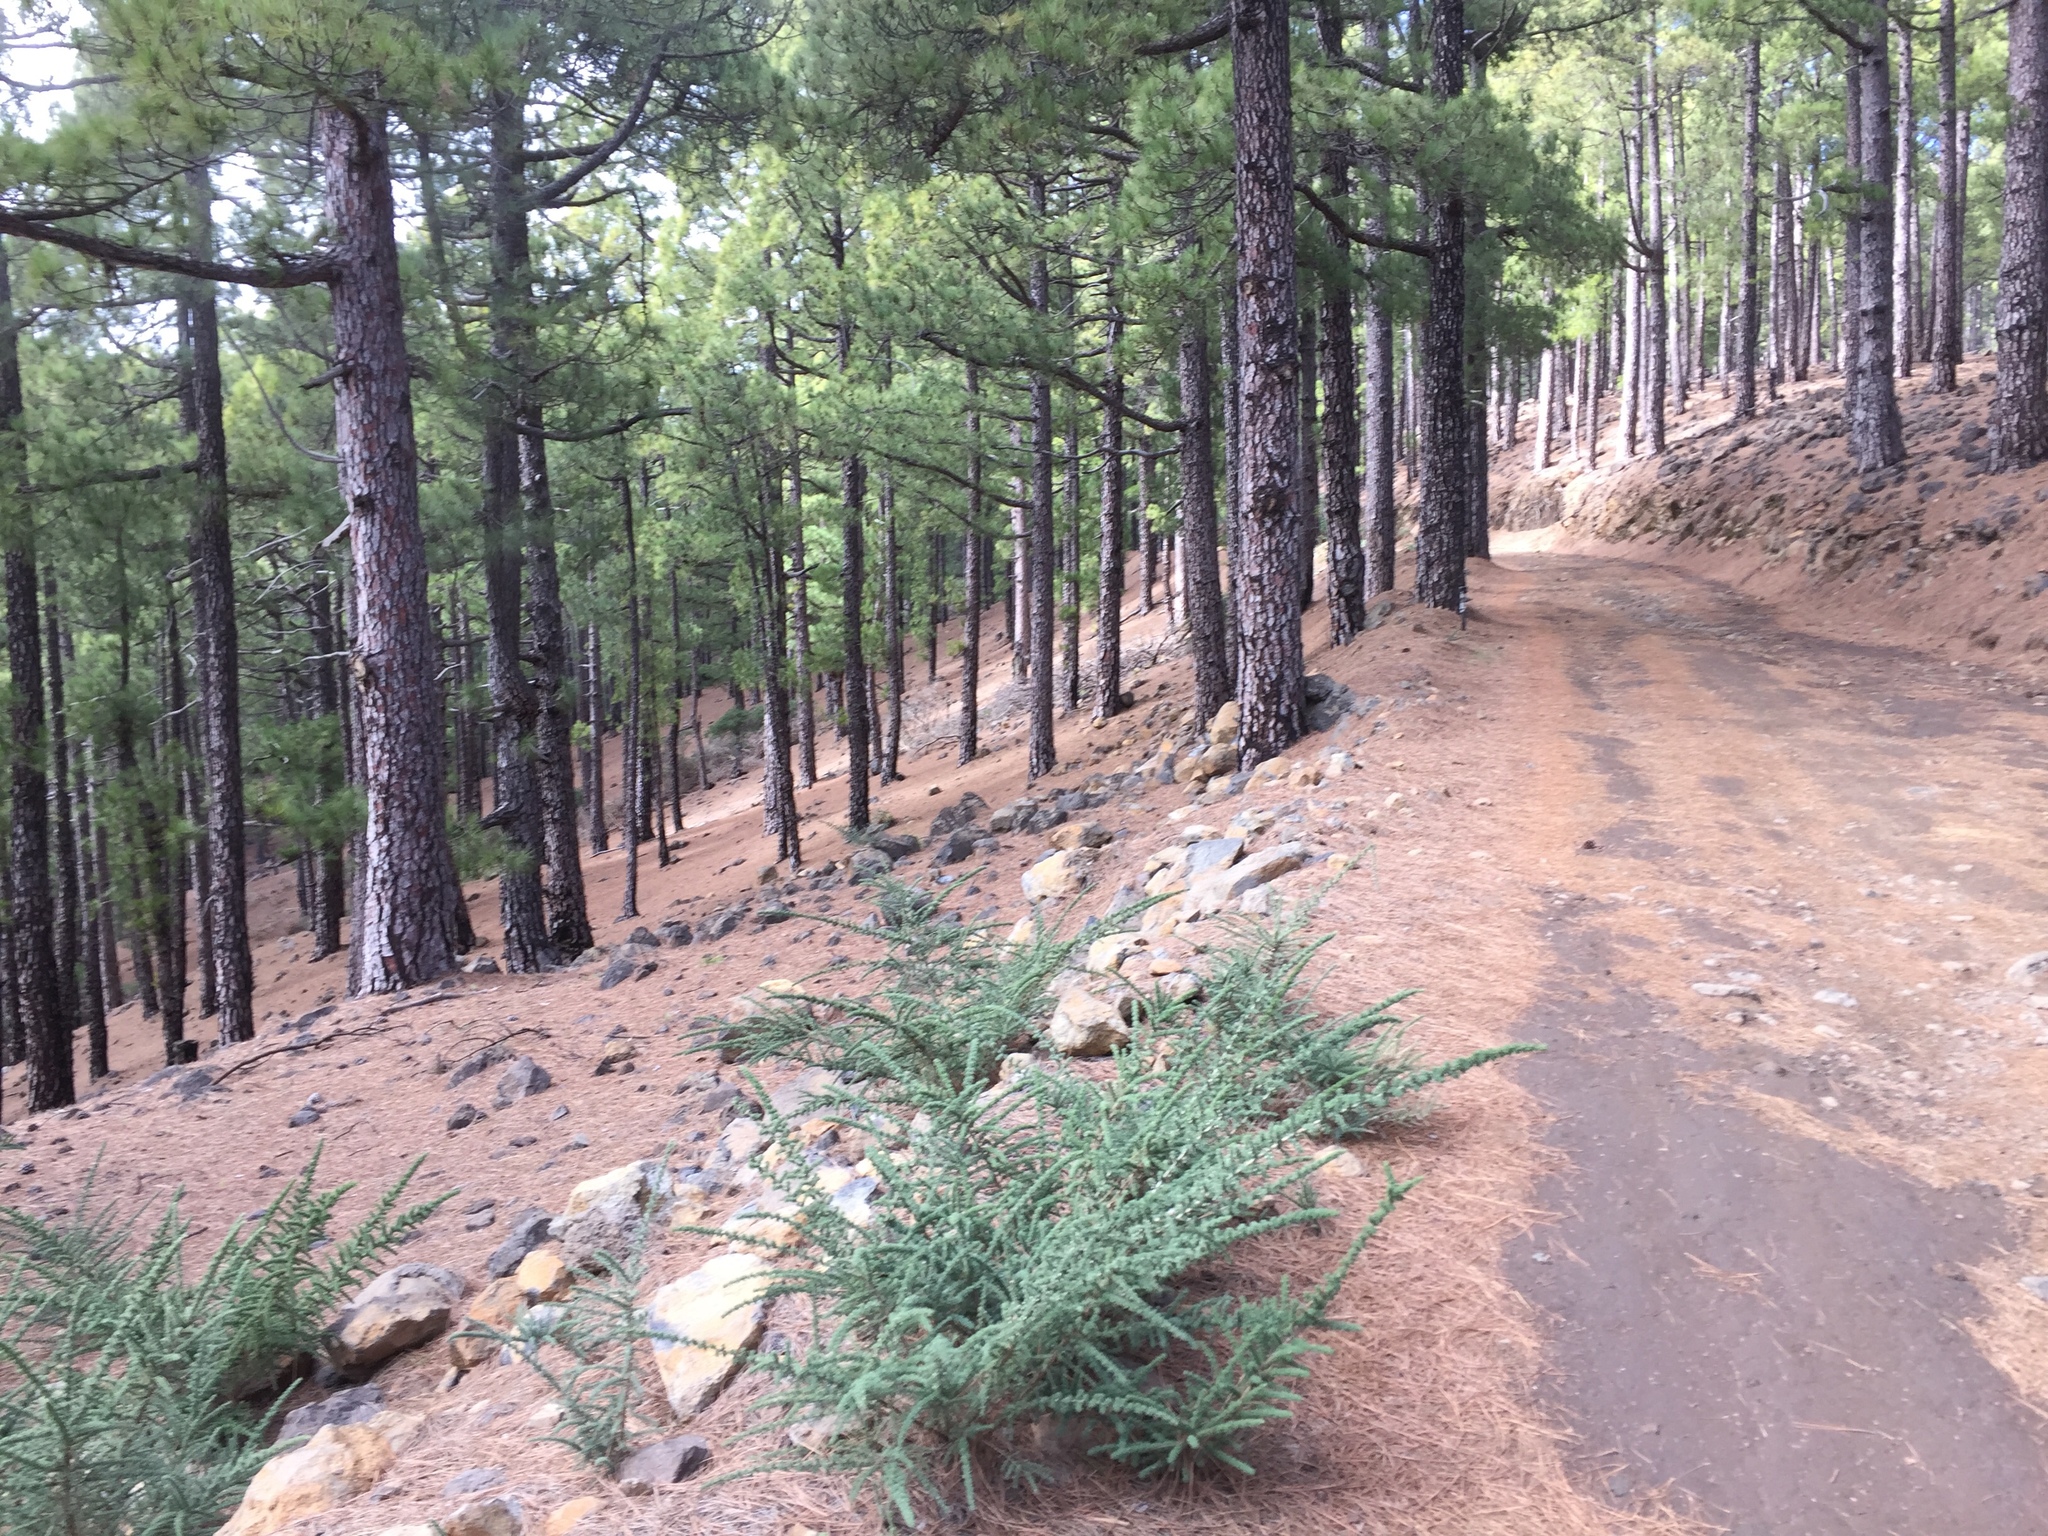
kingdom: Plantae
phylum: Tracheophyta
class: Pinopsida
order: Pinales
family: Pinaceae
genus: Pinus
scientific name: Pinus canariensis
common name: Canary islands pine
